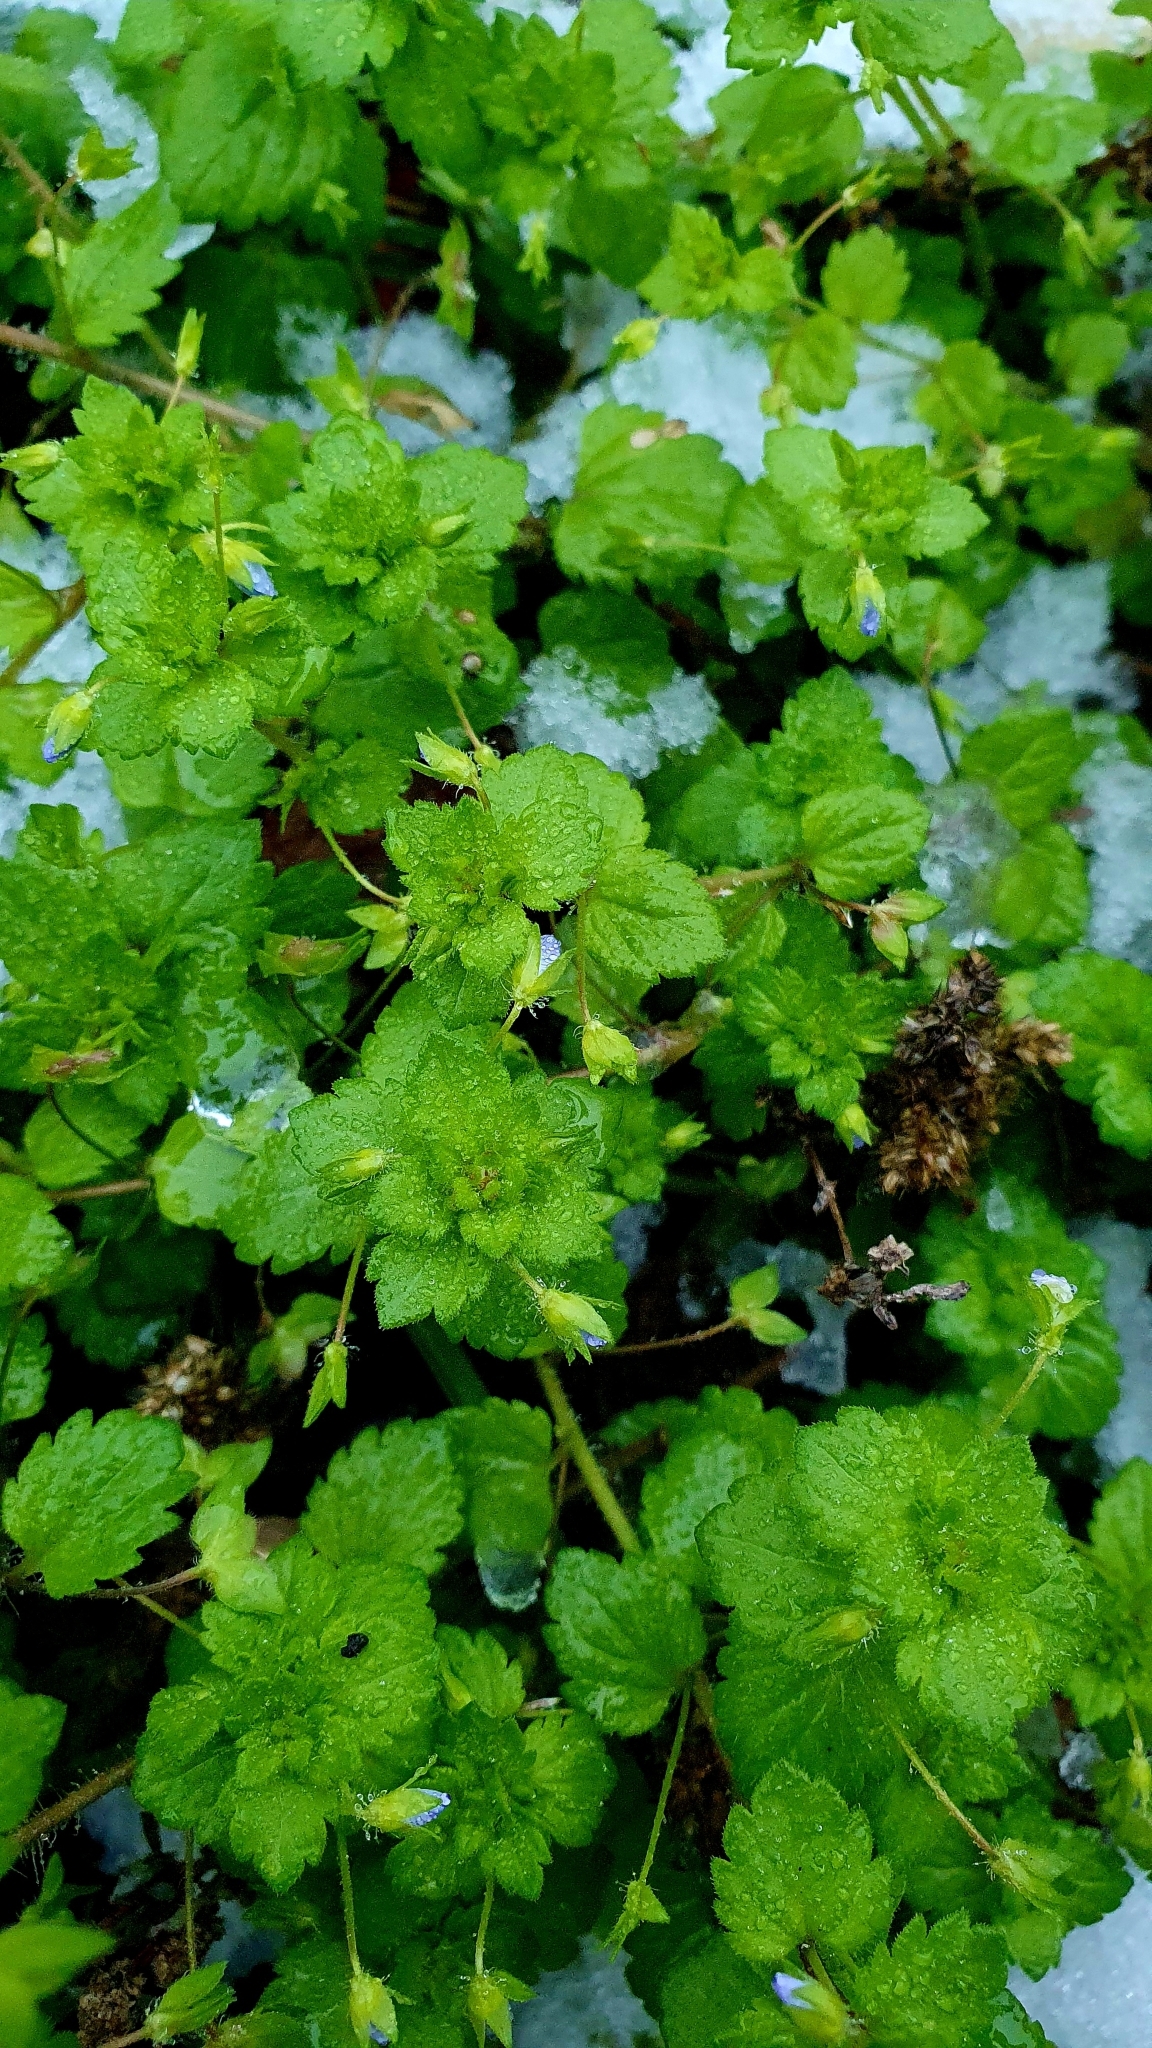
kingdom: Plantae
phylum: Tracheophyta
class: Magnoliopsida
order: Lamiales
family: Plantaginaceae
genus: Veronica
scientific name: Veronica persica
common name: Common field-speedwell
